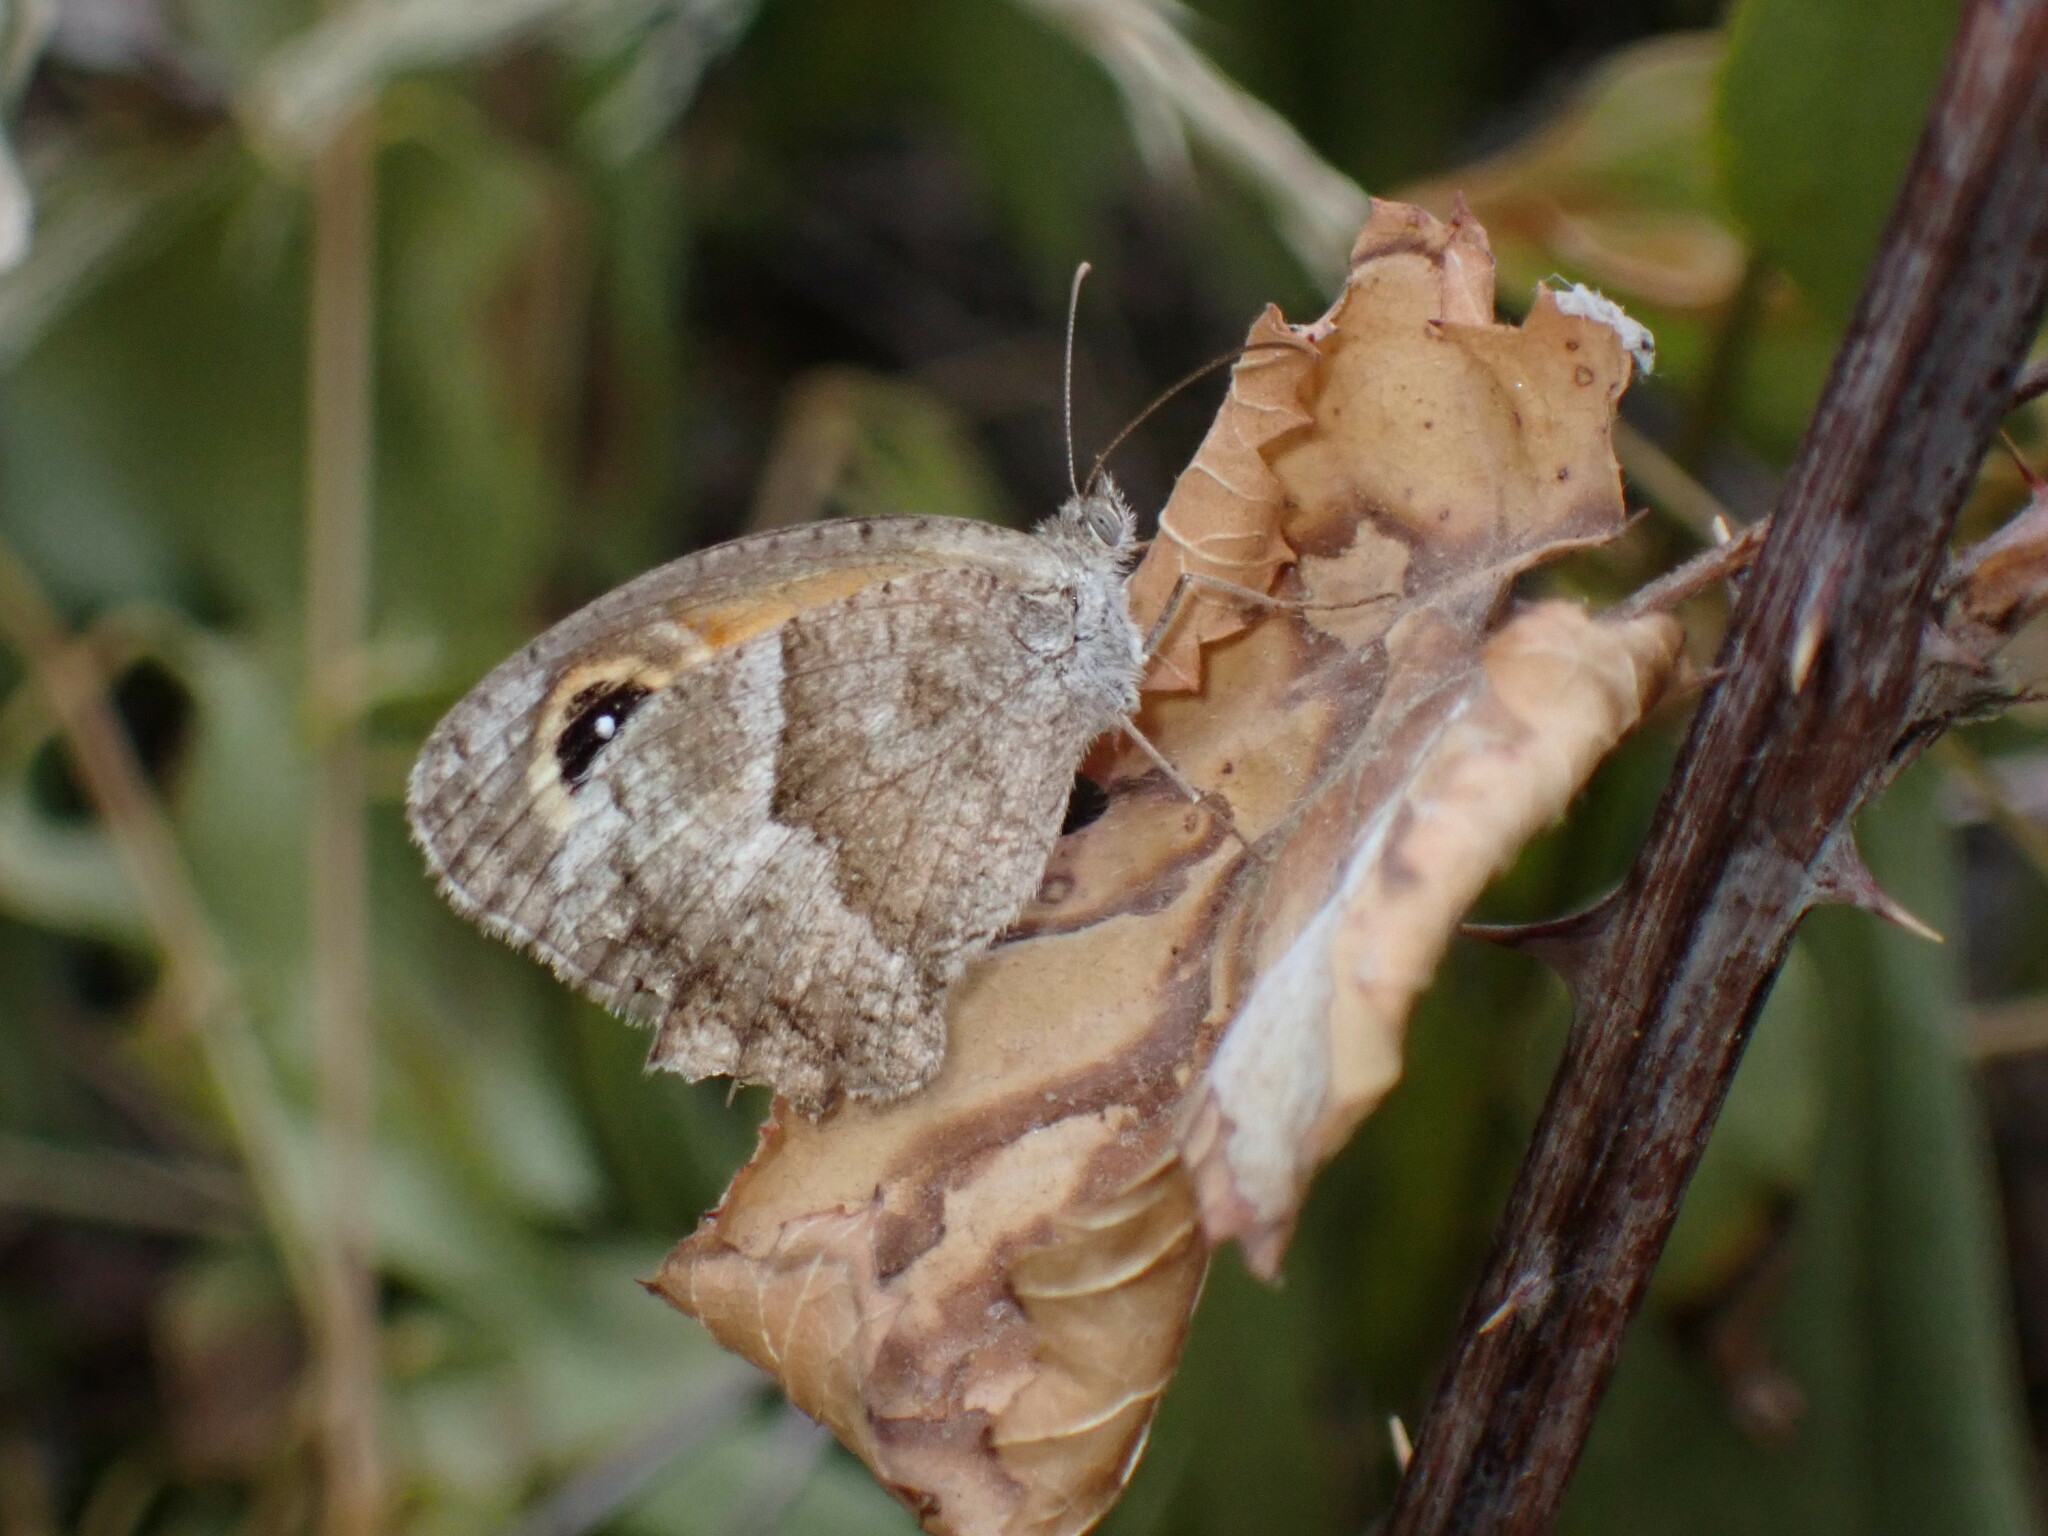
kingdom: Animalia
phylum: Arthropoda
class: Insecta
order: Lepidoptera
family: Nymphalidae
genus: Pyronia
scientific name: Pyronia cecilia
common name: Southern gatekeeper
